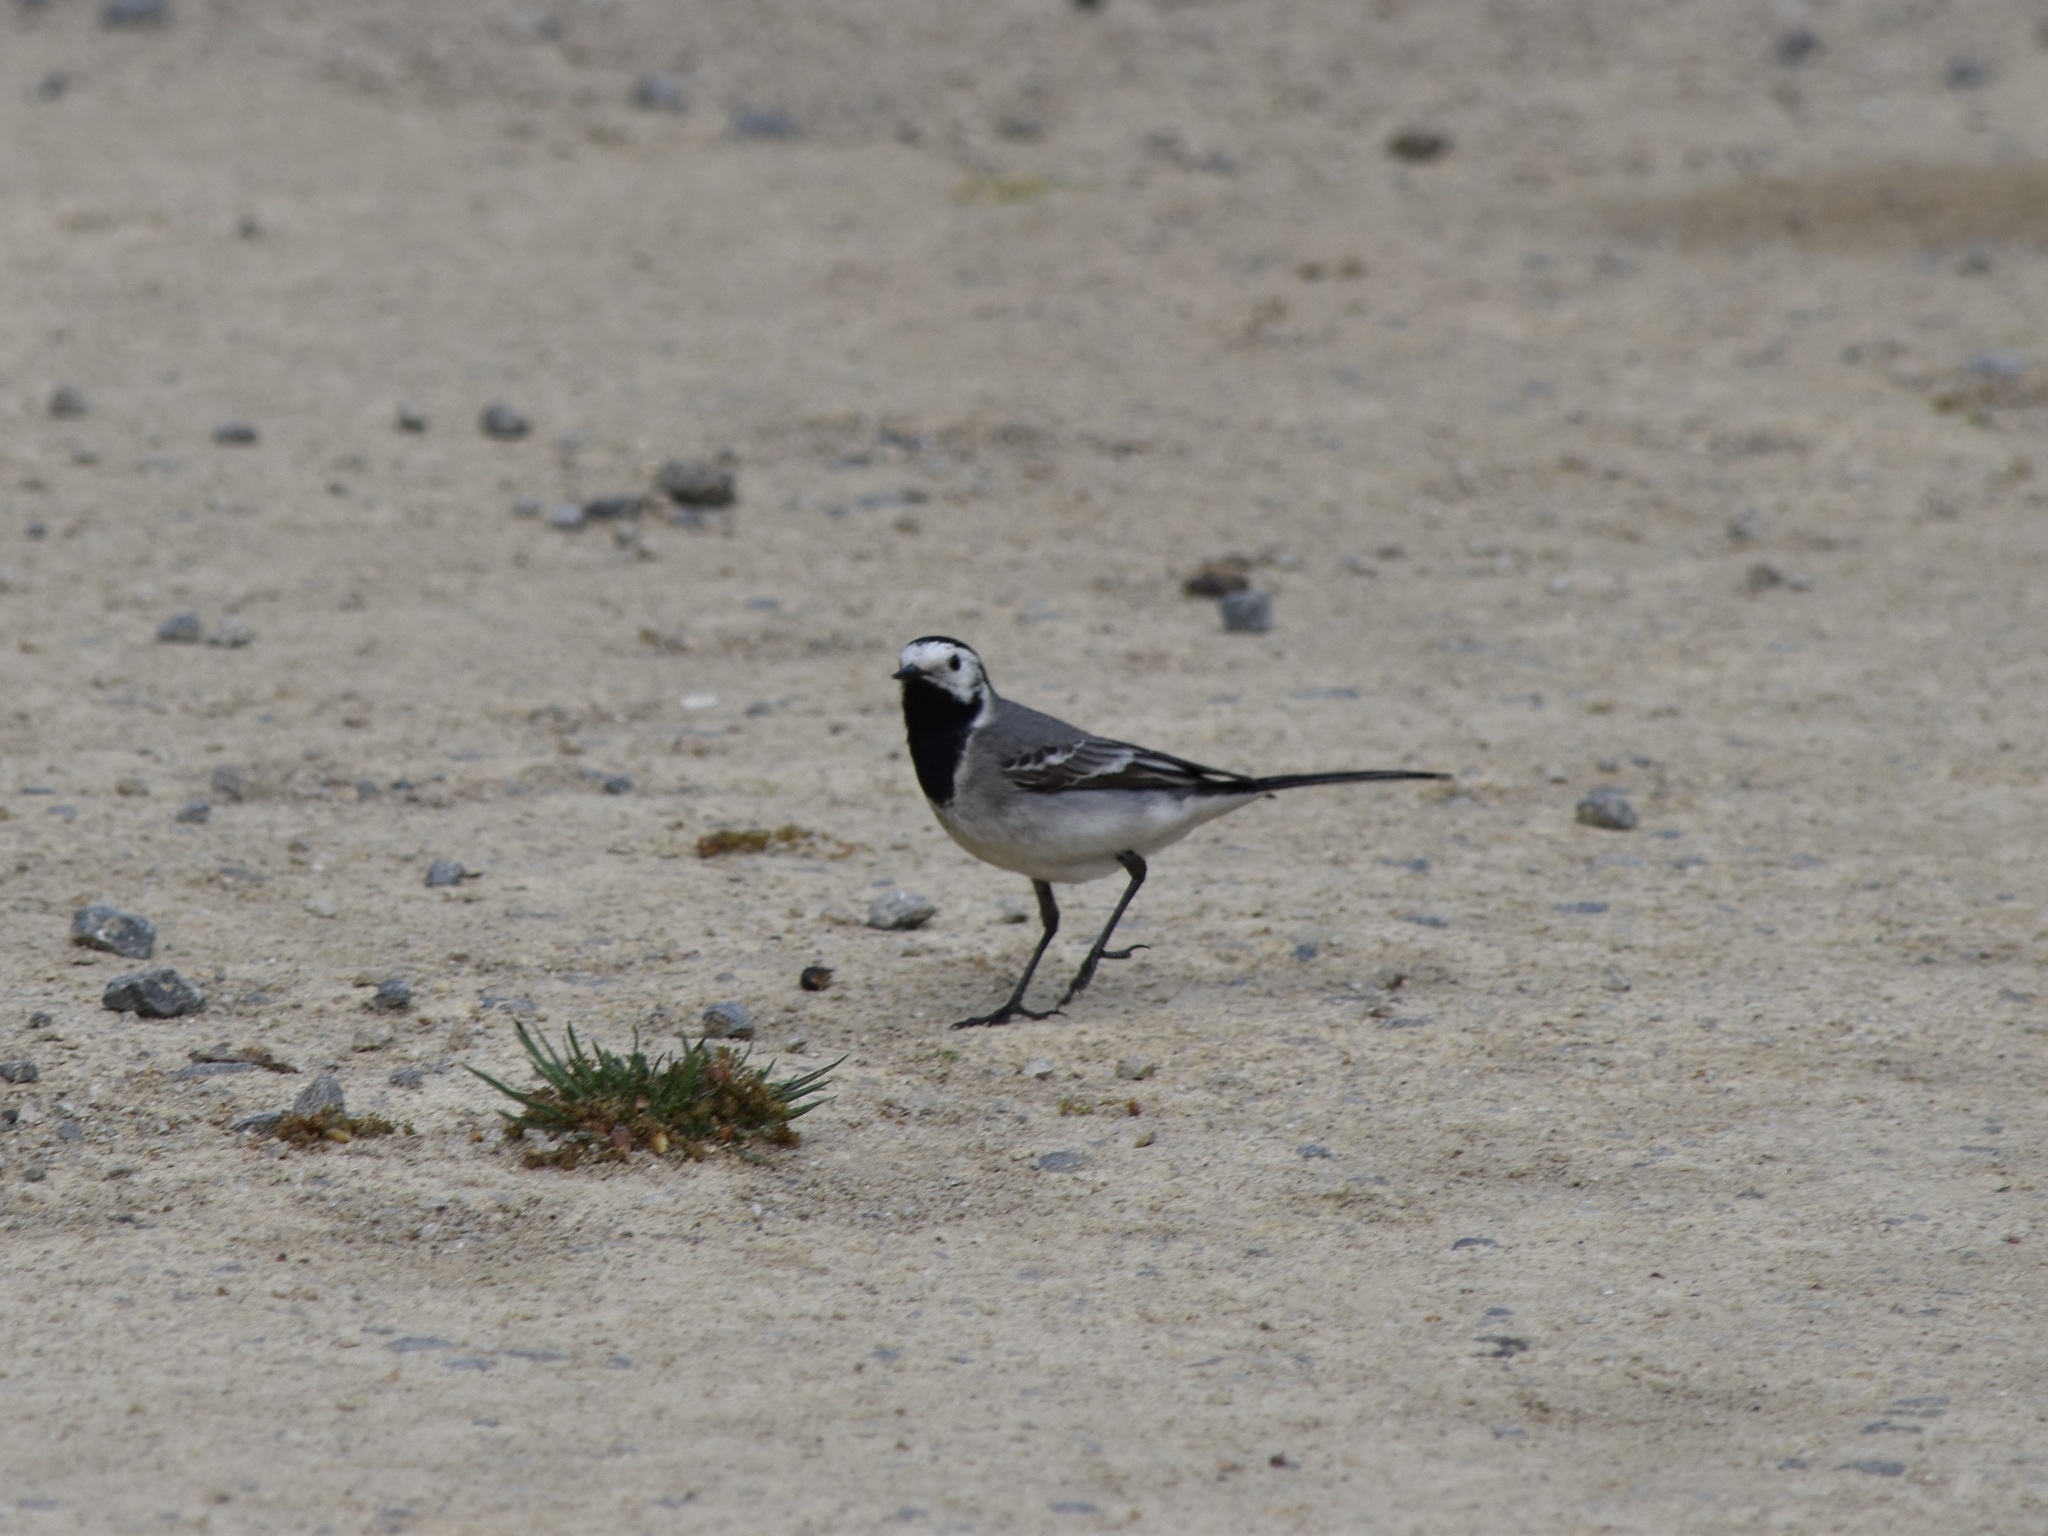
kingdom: Animalia
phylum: Chordata
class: Aves
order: Passeriformes
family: Motacillidae
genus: Motacilla
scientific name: Motacilla alba
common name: White wagtail
